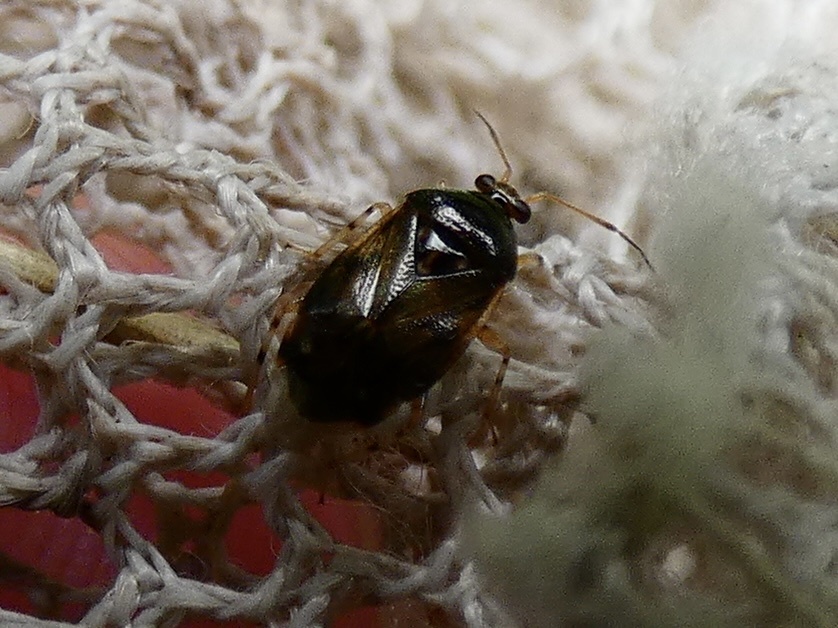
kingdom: Animalia
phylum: Arthropoda
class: Insecta
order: Hemiptera
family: Miridae
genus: Deraeocoris
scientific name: Deraeocoris lutescens
